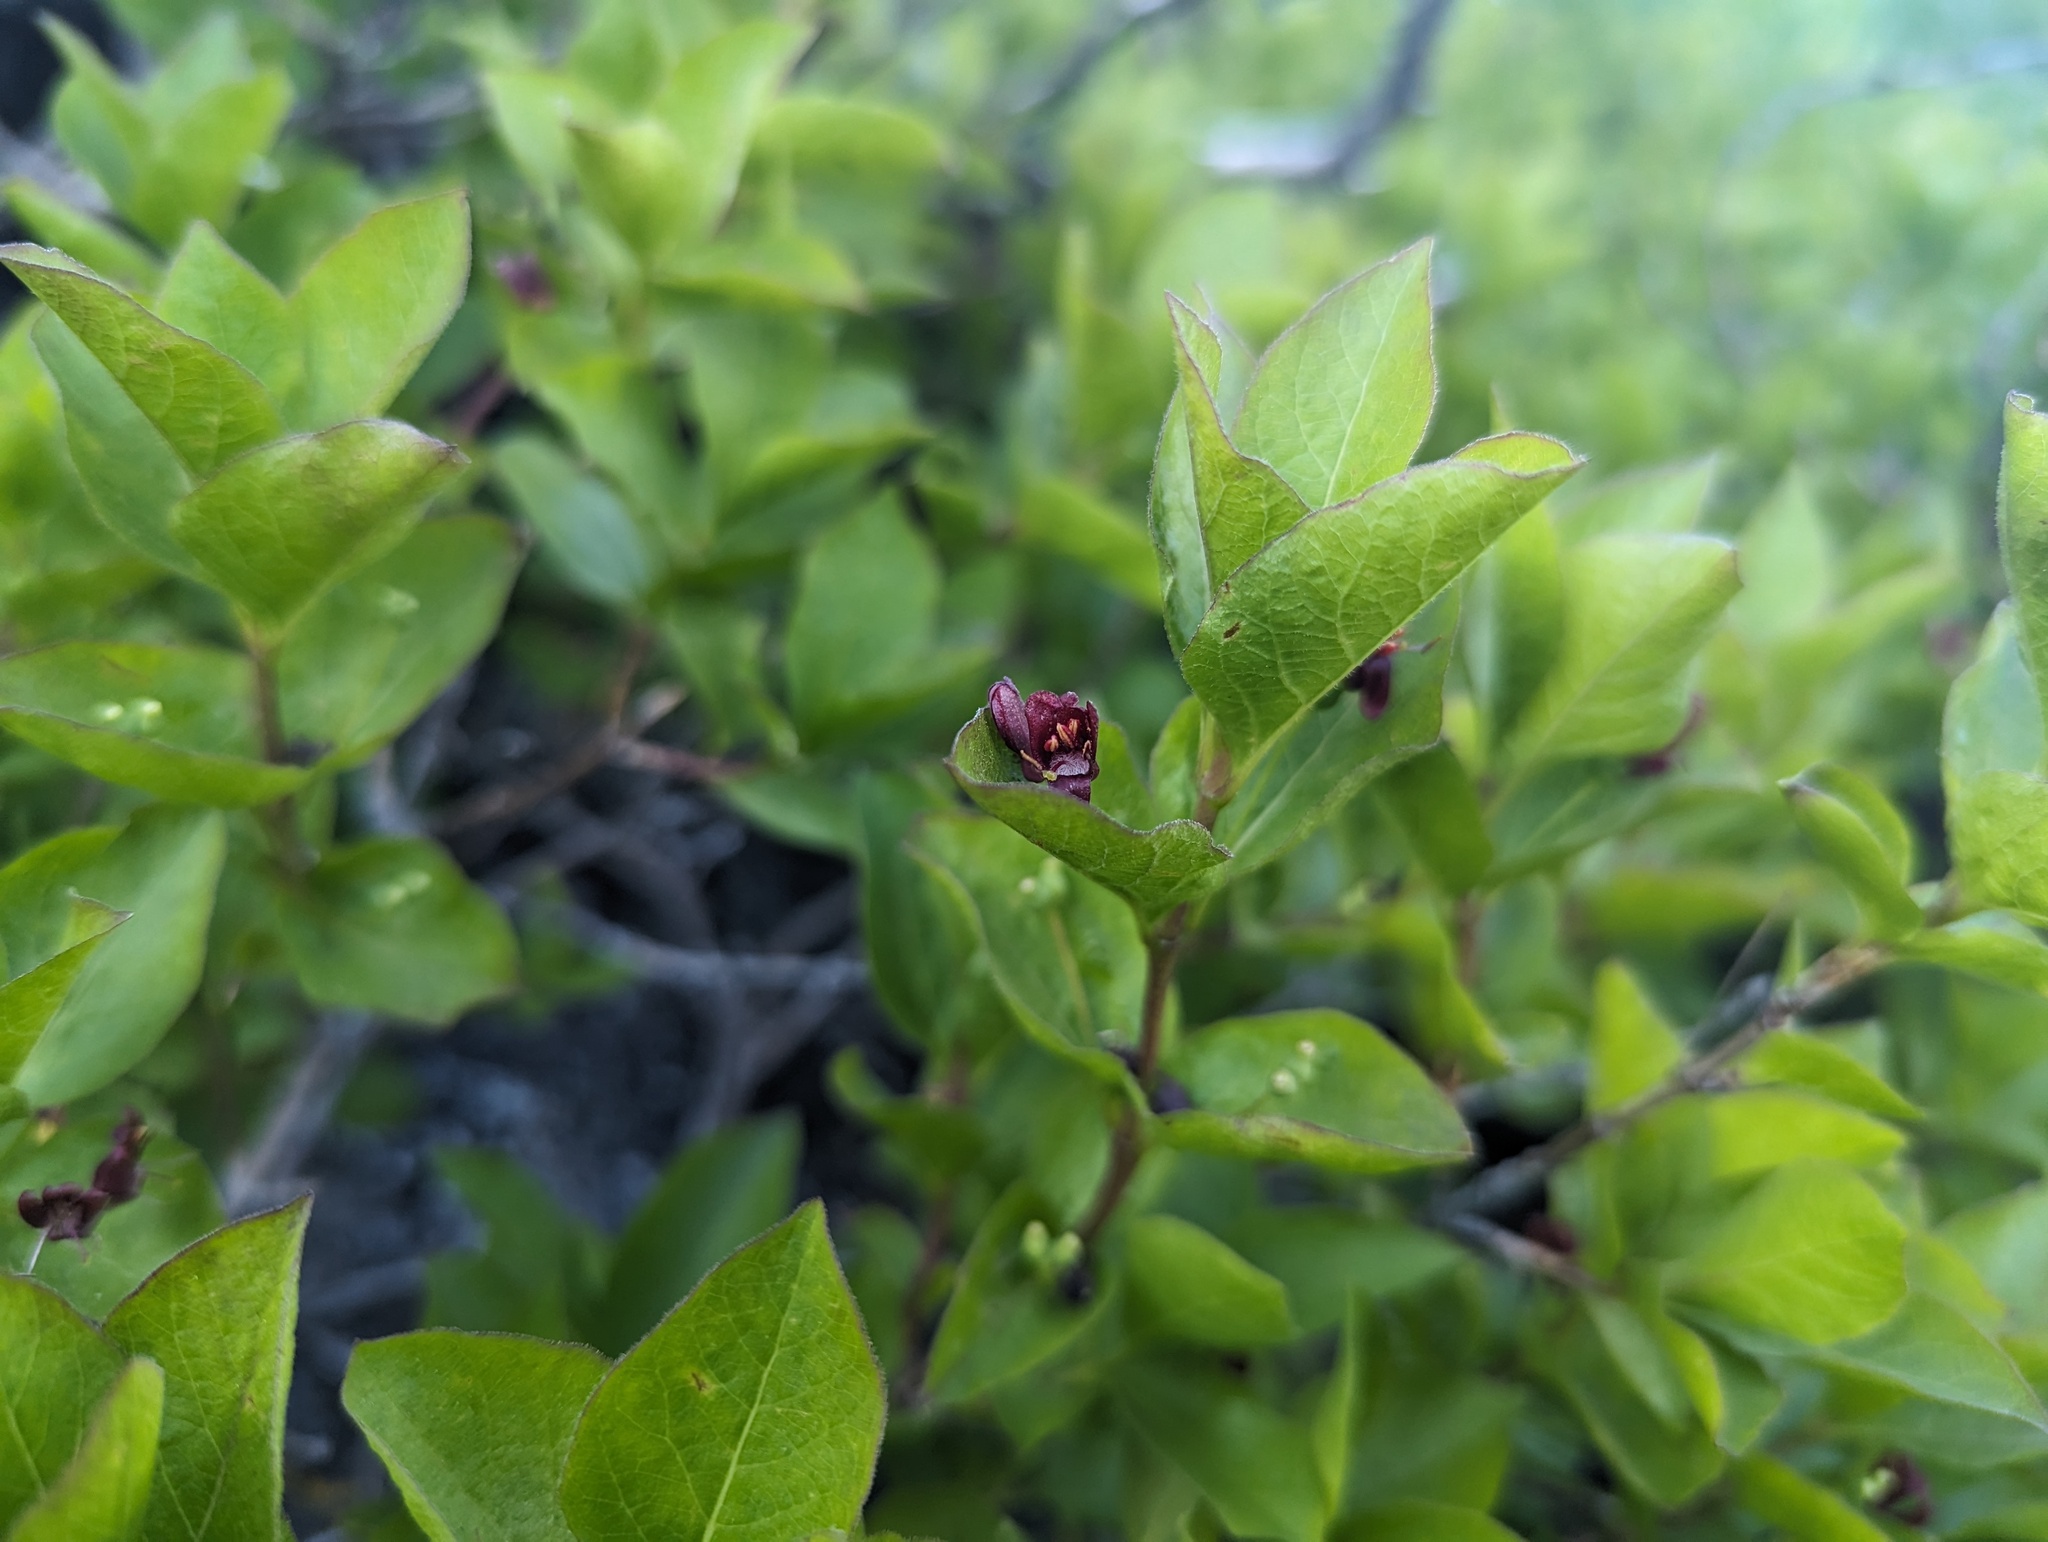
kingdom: Plantae
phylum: Tracheophyta
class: Magnoliopsida
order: Dipsacales
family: Caprifoliaceae
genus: Lonicera
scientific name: Lonicera conjugialis
